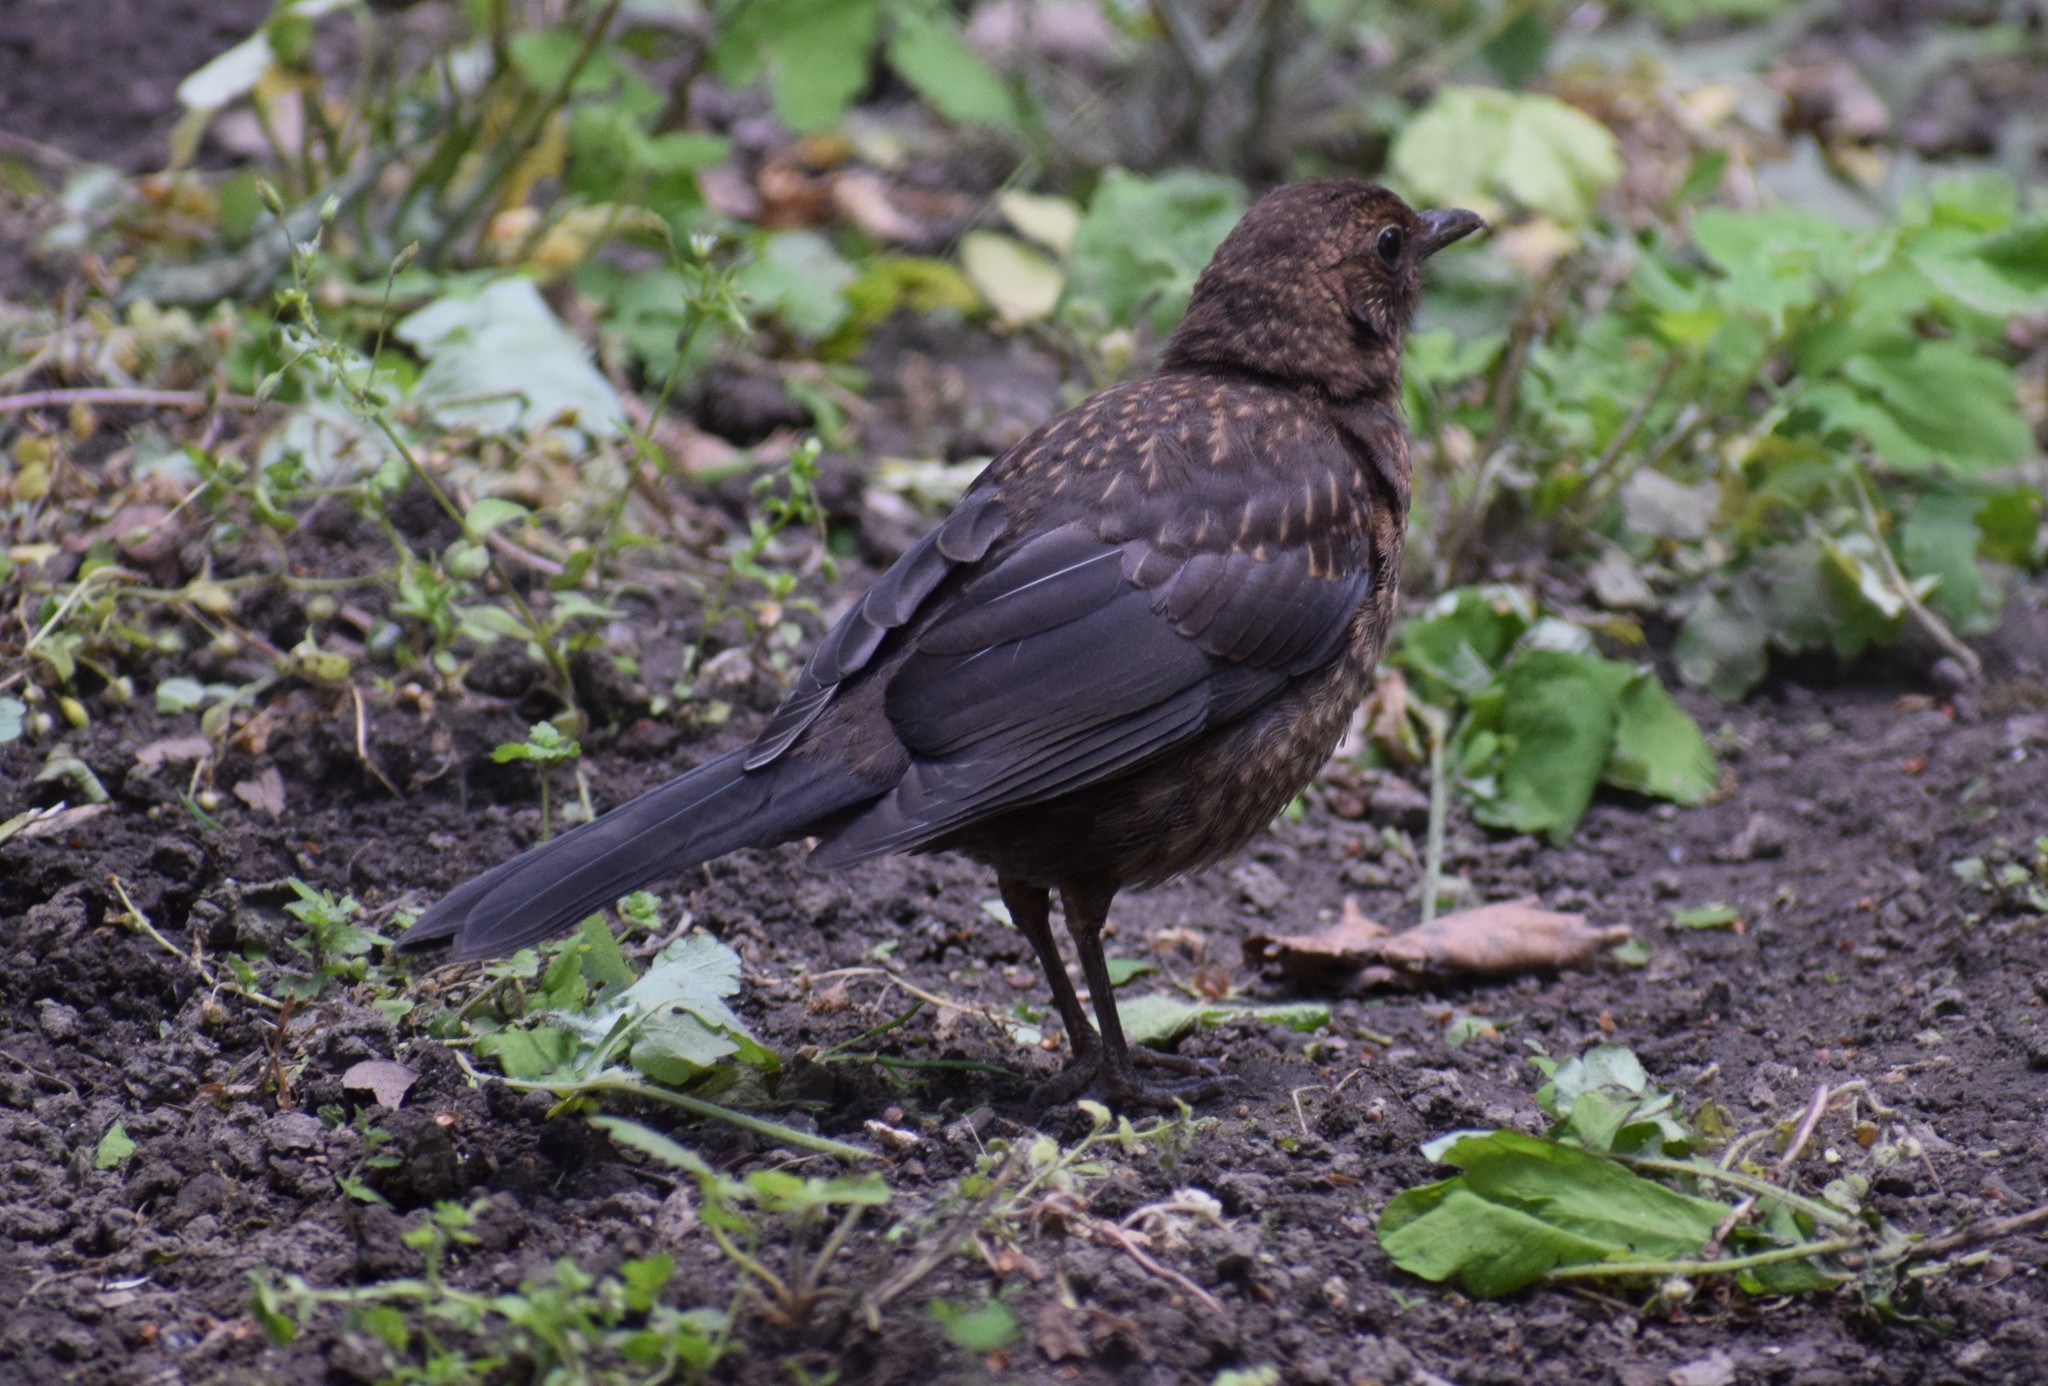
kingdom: Animalia
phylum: Chordata
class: Aves
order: Passeriformes
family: Turdidae
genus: Turdus
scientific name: Turdus merula
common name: Common blackbird
